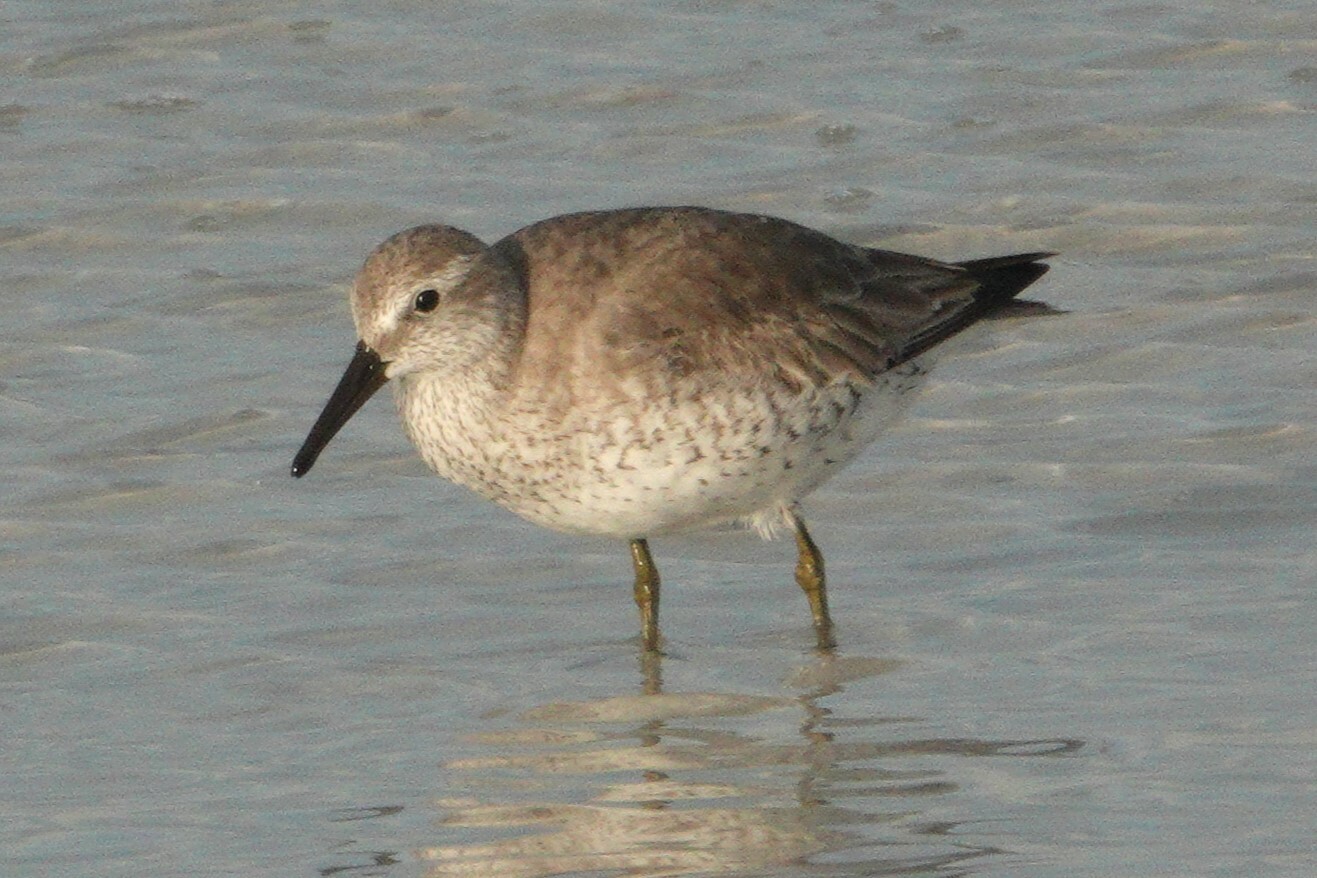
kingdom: Animalia
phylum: Chordata
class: Aves
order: Charadriiformes
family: Scolopacidae
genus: Calidris
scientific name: Calidris canutus
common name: Red knot
